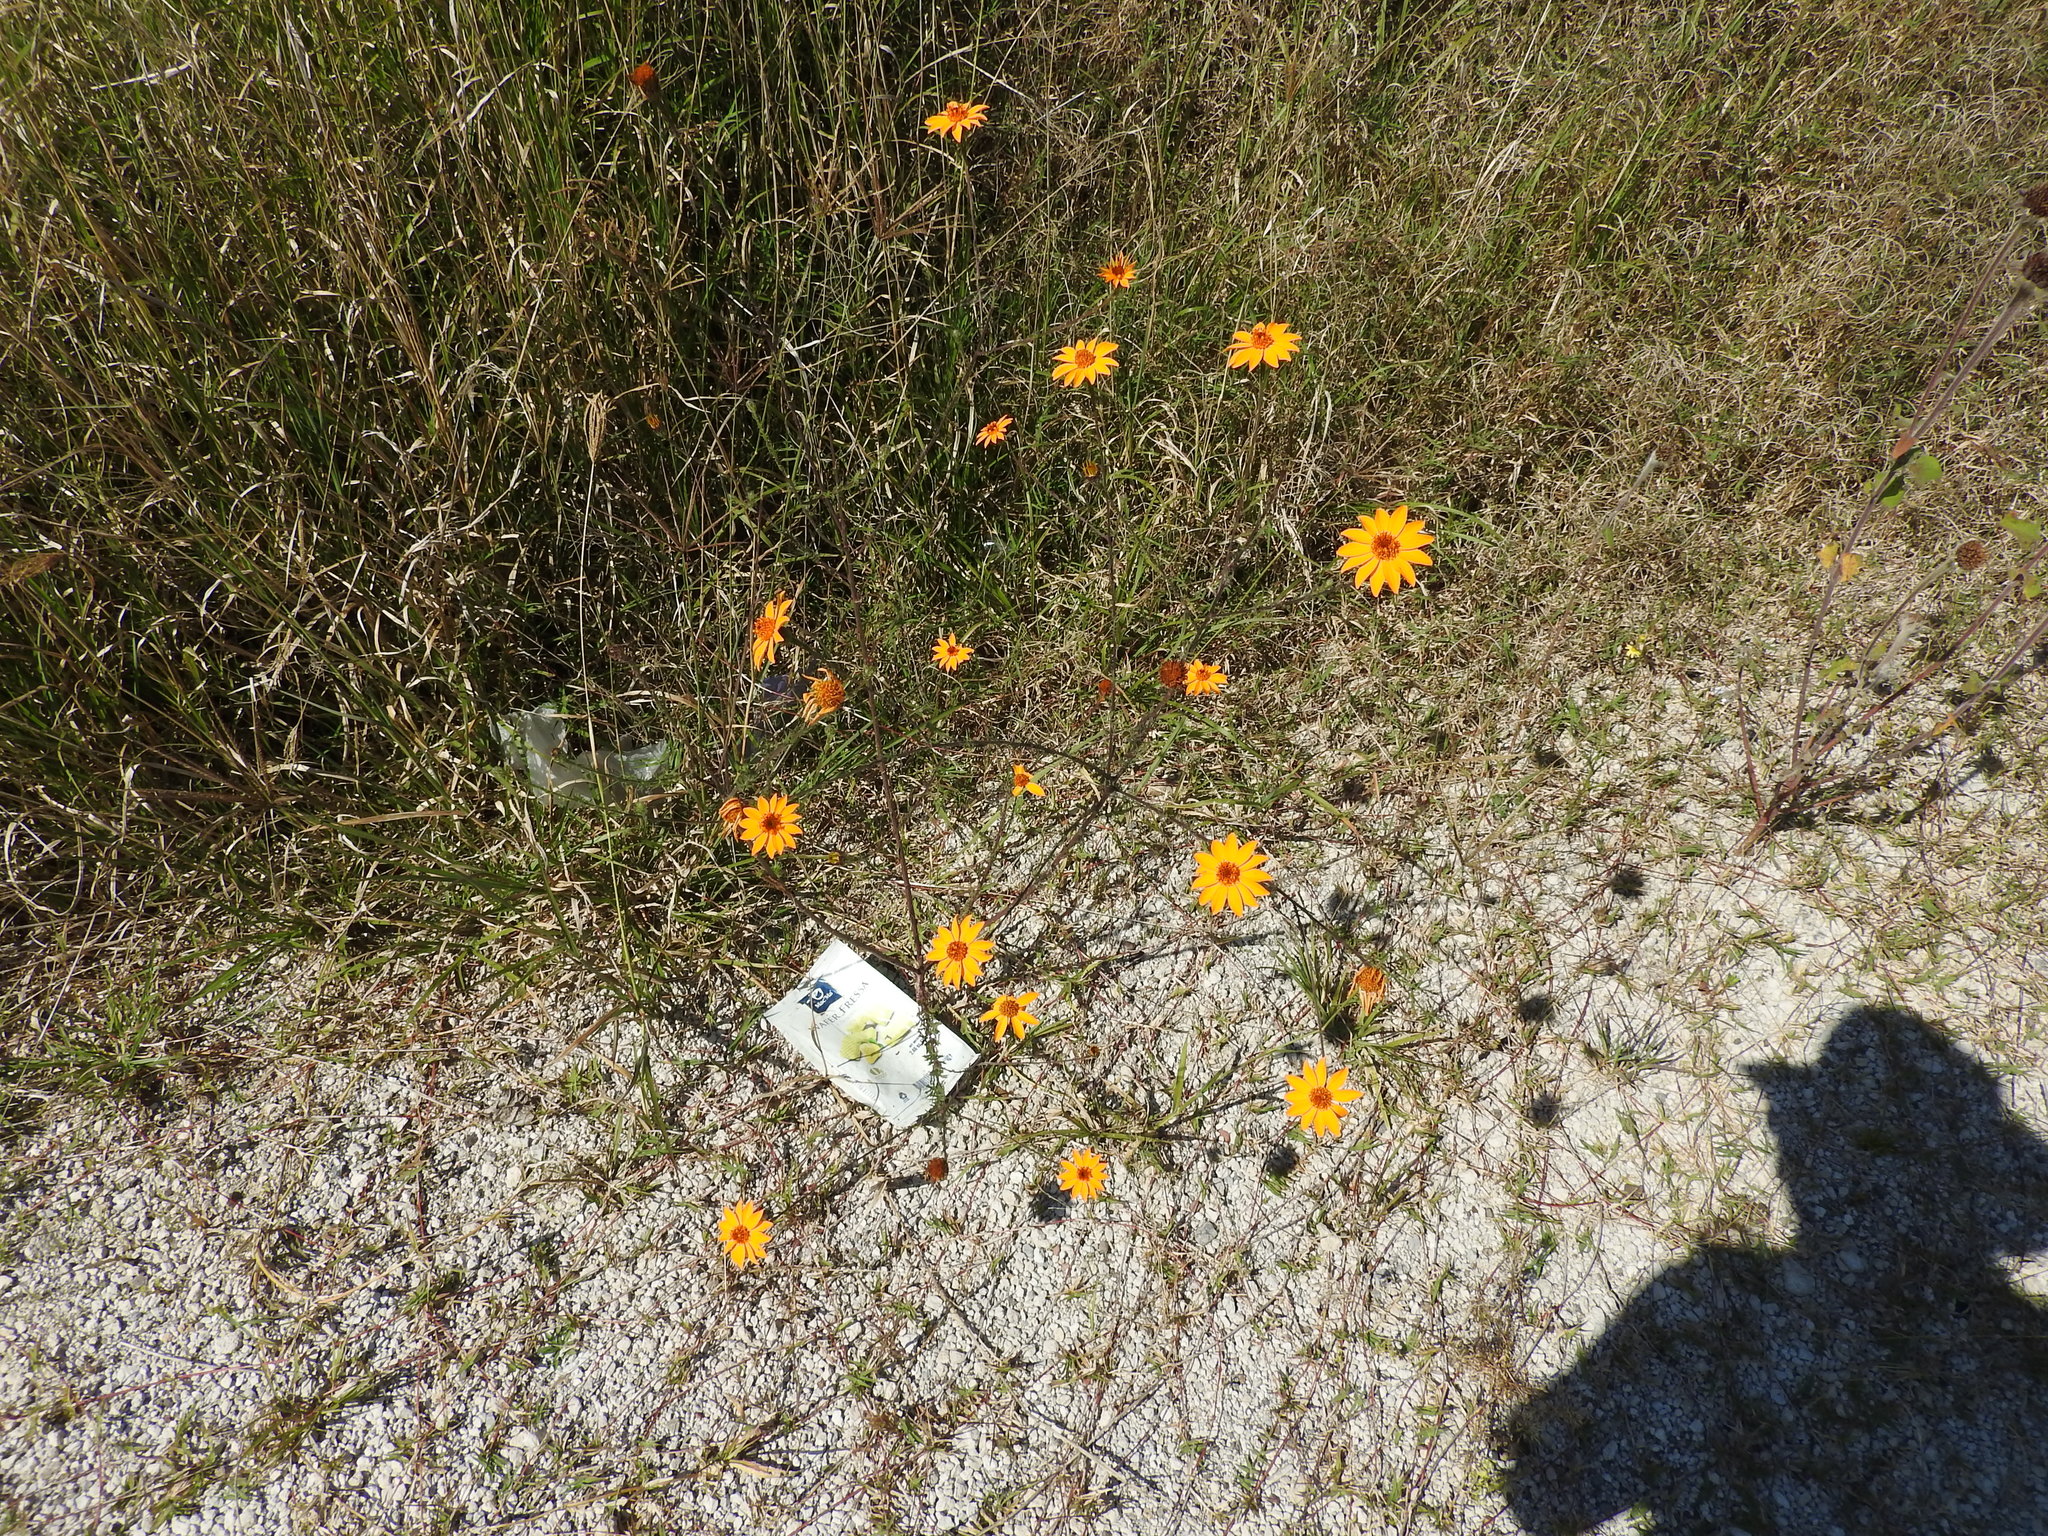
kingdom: Plantae
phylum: Tracheophyta
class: Magnoliopsida
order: Asterales
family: Asteraceae
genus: Adenophyllum
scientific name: Adenophyllum cancellatum
